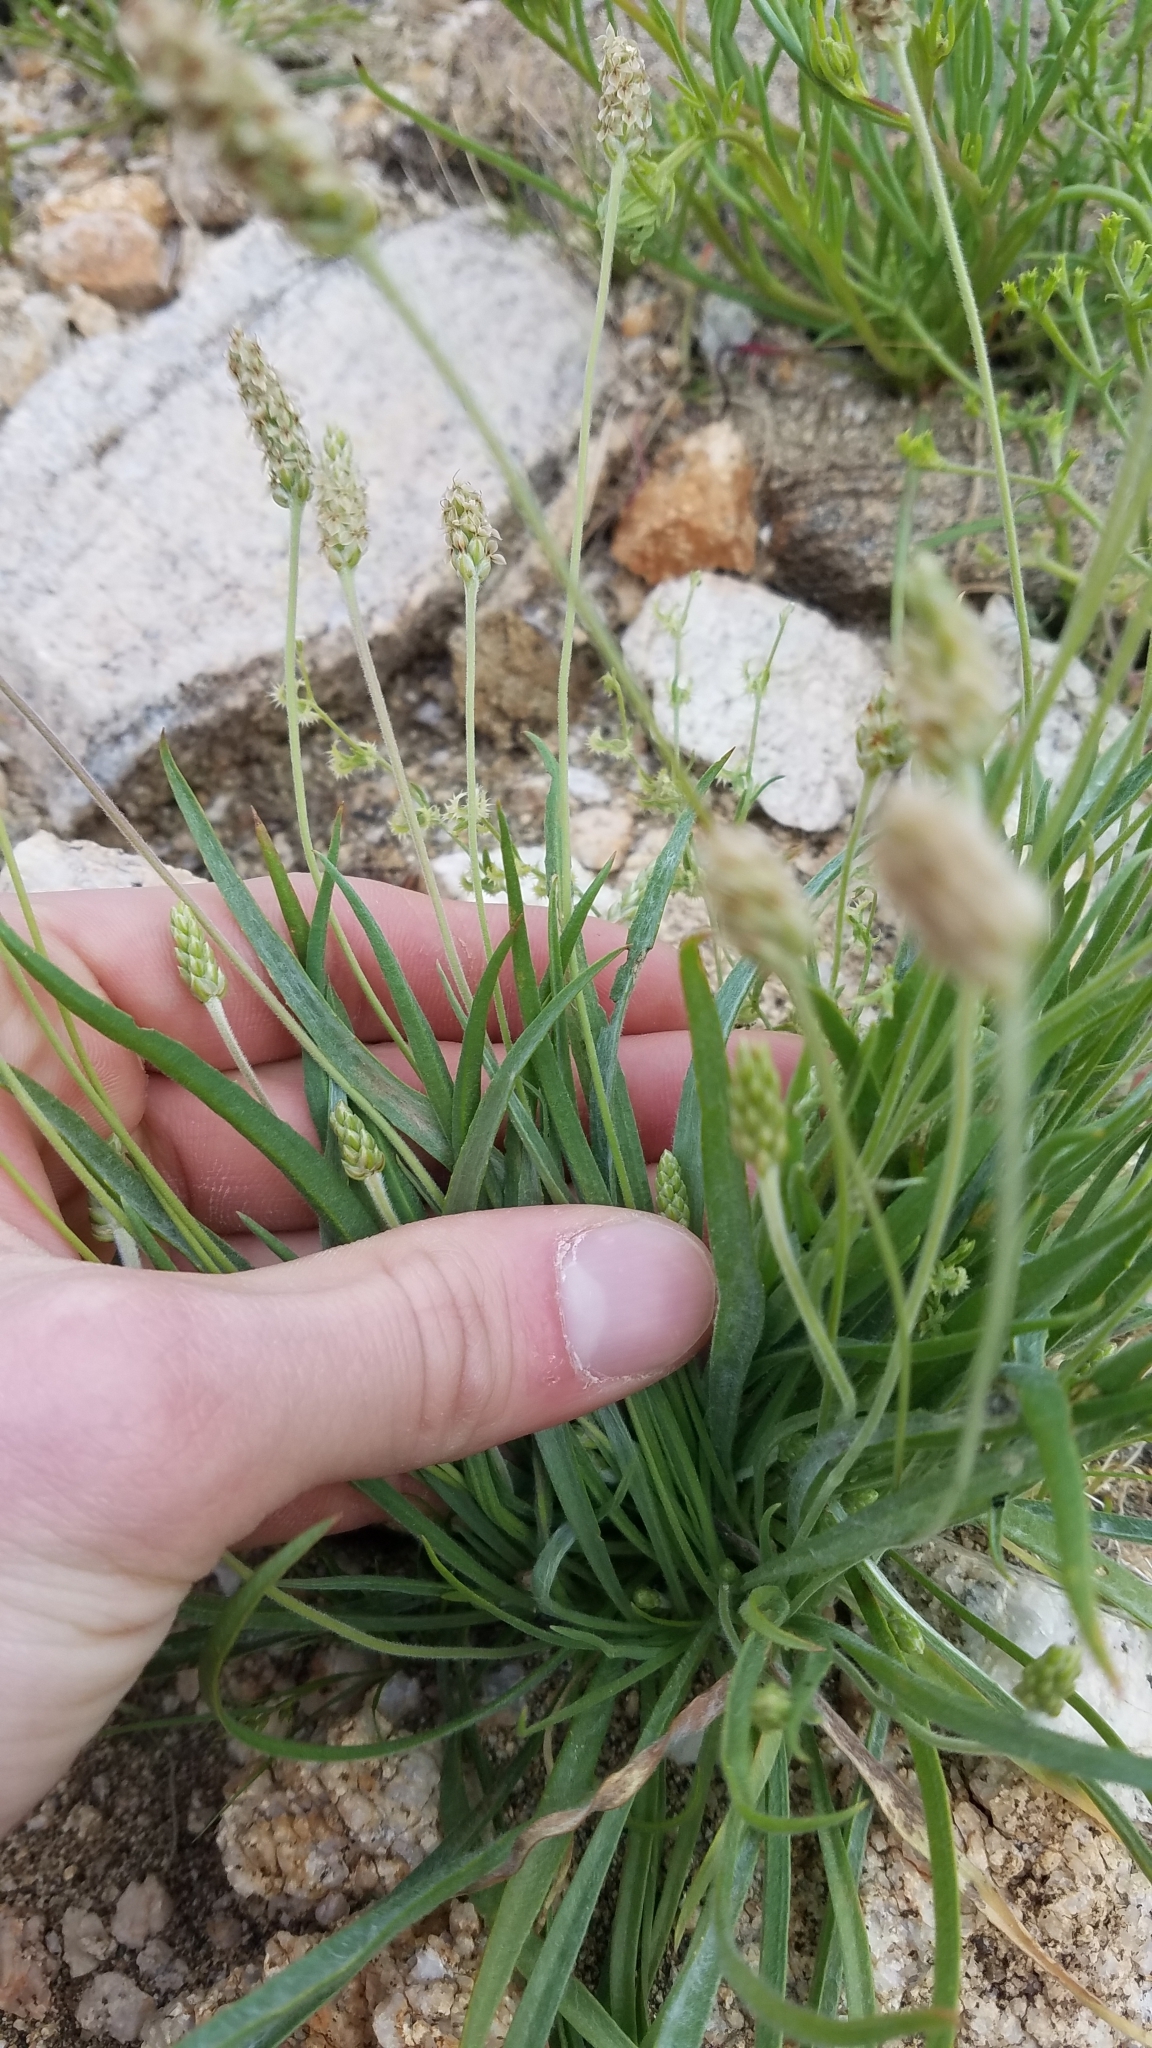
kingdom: Plantae
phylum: Tracheophyta
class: Magnoliopsida
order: Lamiales
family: Plantaginaceae
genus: Plantago
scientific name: Plantago ovata
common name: Blond plantain
